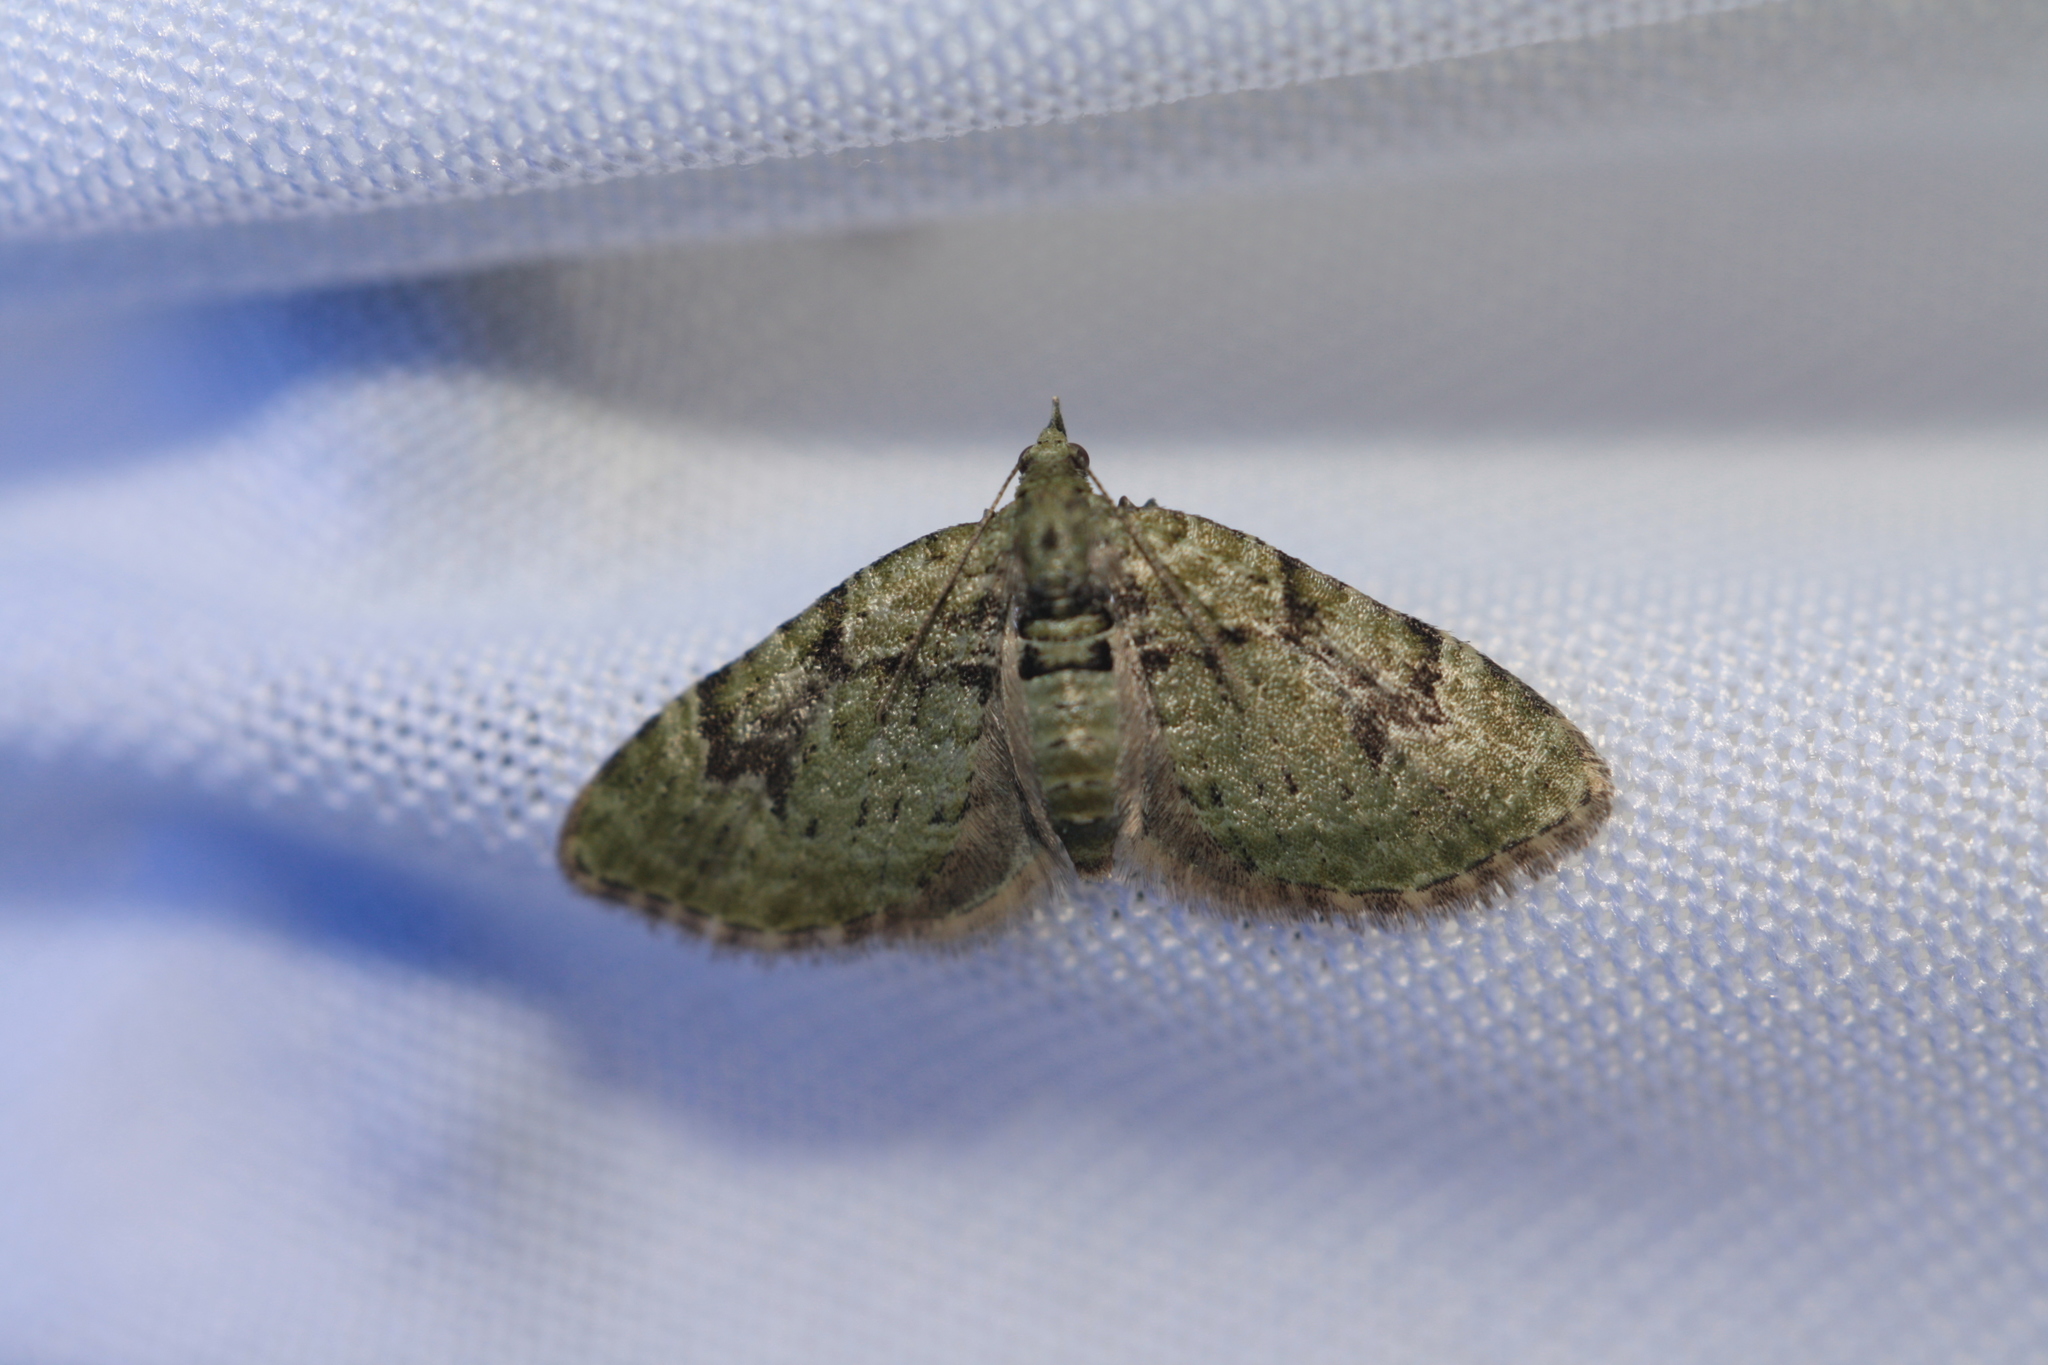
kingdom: Animalia
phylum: Arthropoda
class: Insecta
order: Lepidoptera
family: Geometridae
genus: Chloroclystis
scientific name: Chloroclystis v-ata
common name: V-pug
